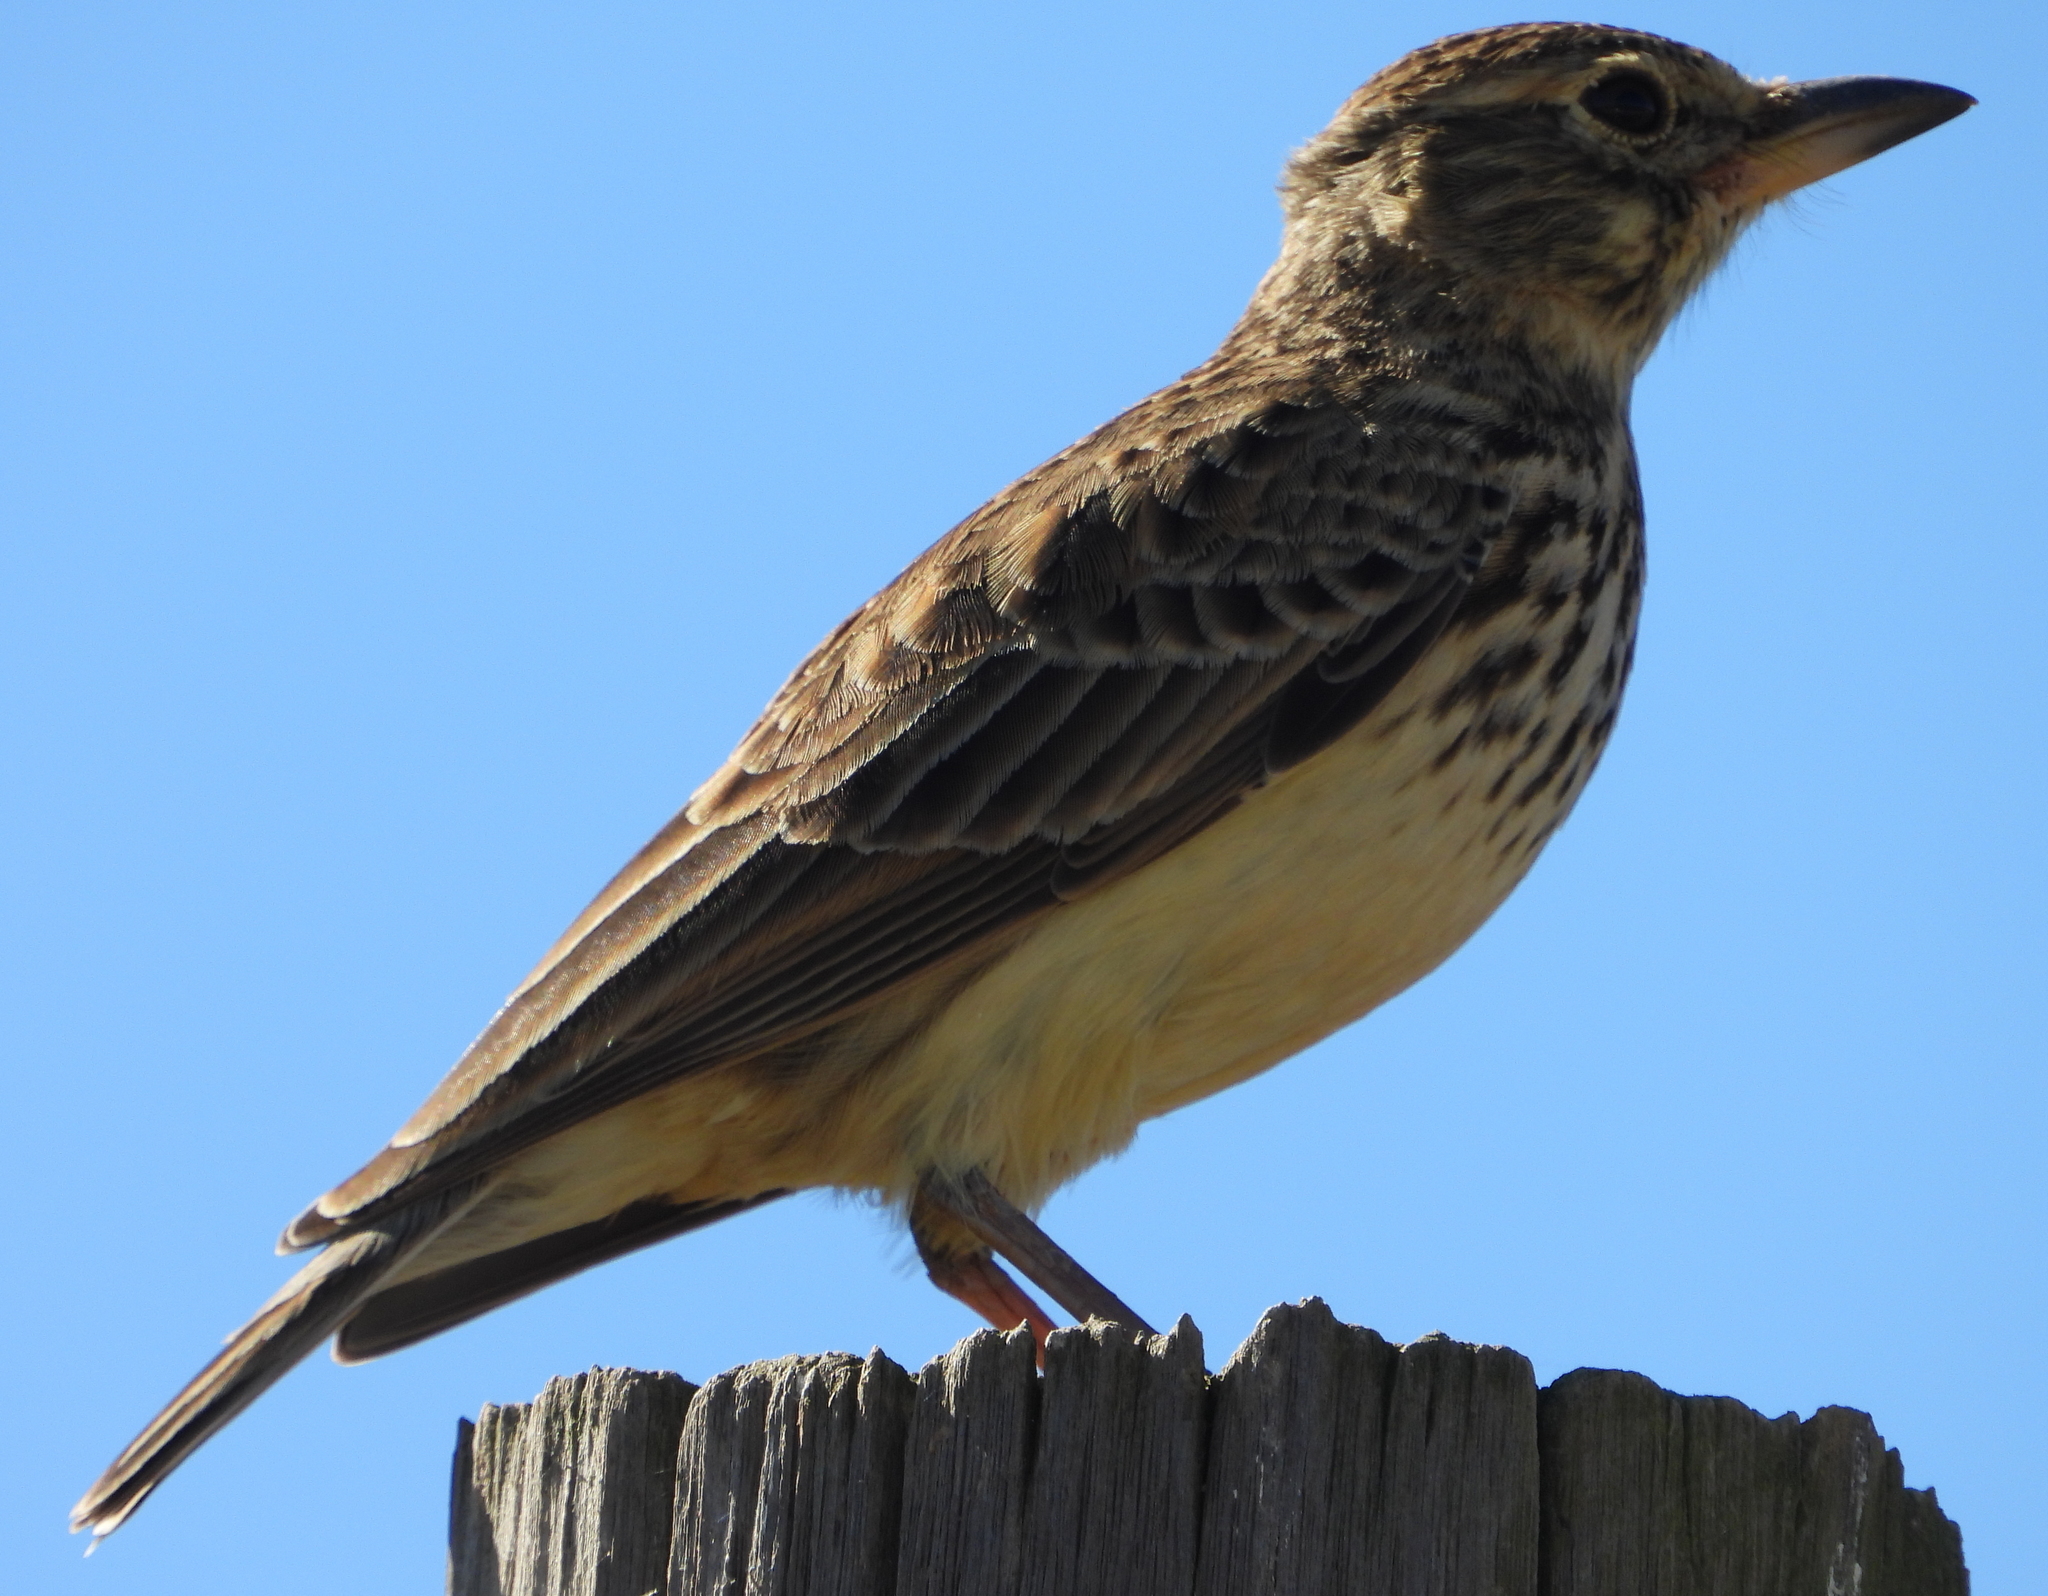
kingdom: Animalia
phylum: Chordata
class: Aves
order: Passeriformes
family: Alaudidae
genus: Galerida
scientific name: Galerida magnirostris
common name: Large-billed lark
